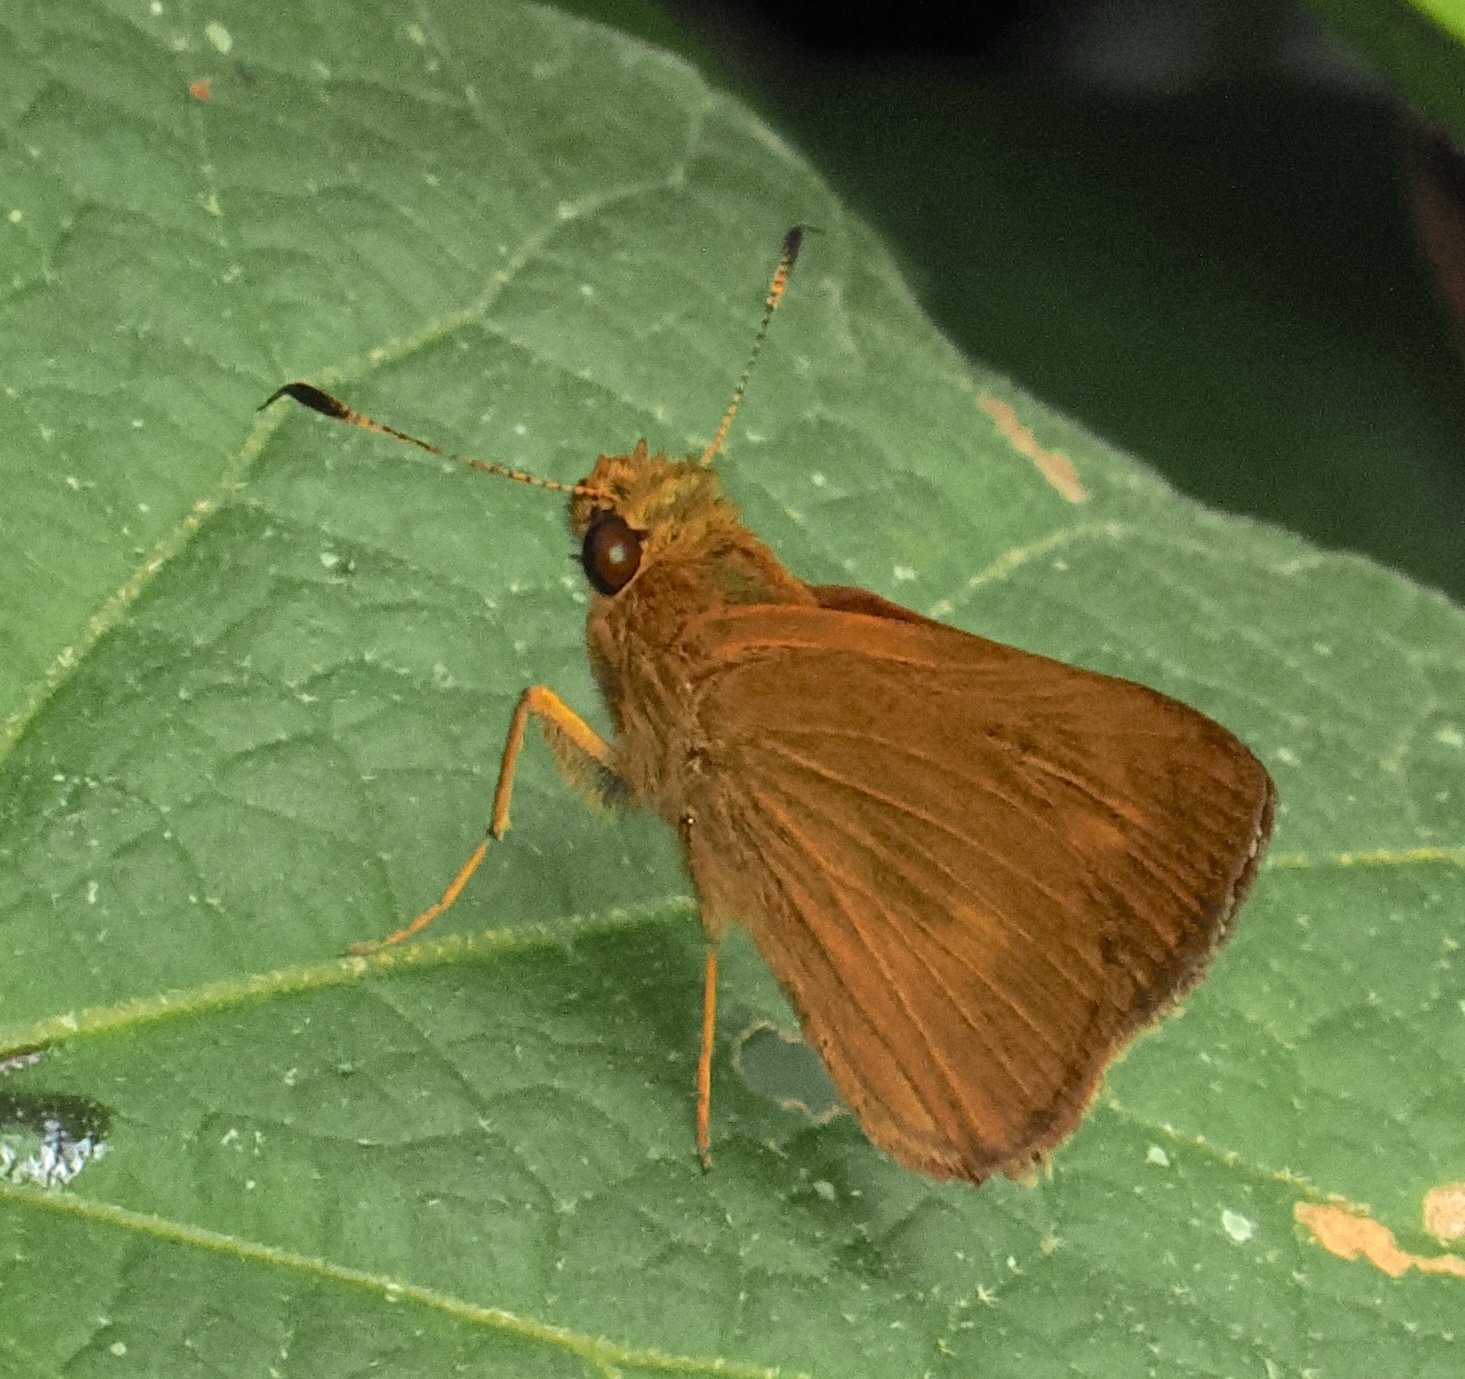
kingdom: Animalia
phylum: Arthropoda
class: Insecta
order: Lepidoptera
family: Hesperiidae
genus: Anthoptus
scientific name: Anthoptus epictetus
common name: Trailside skipper
